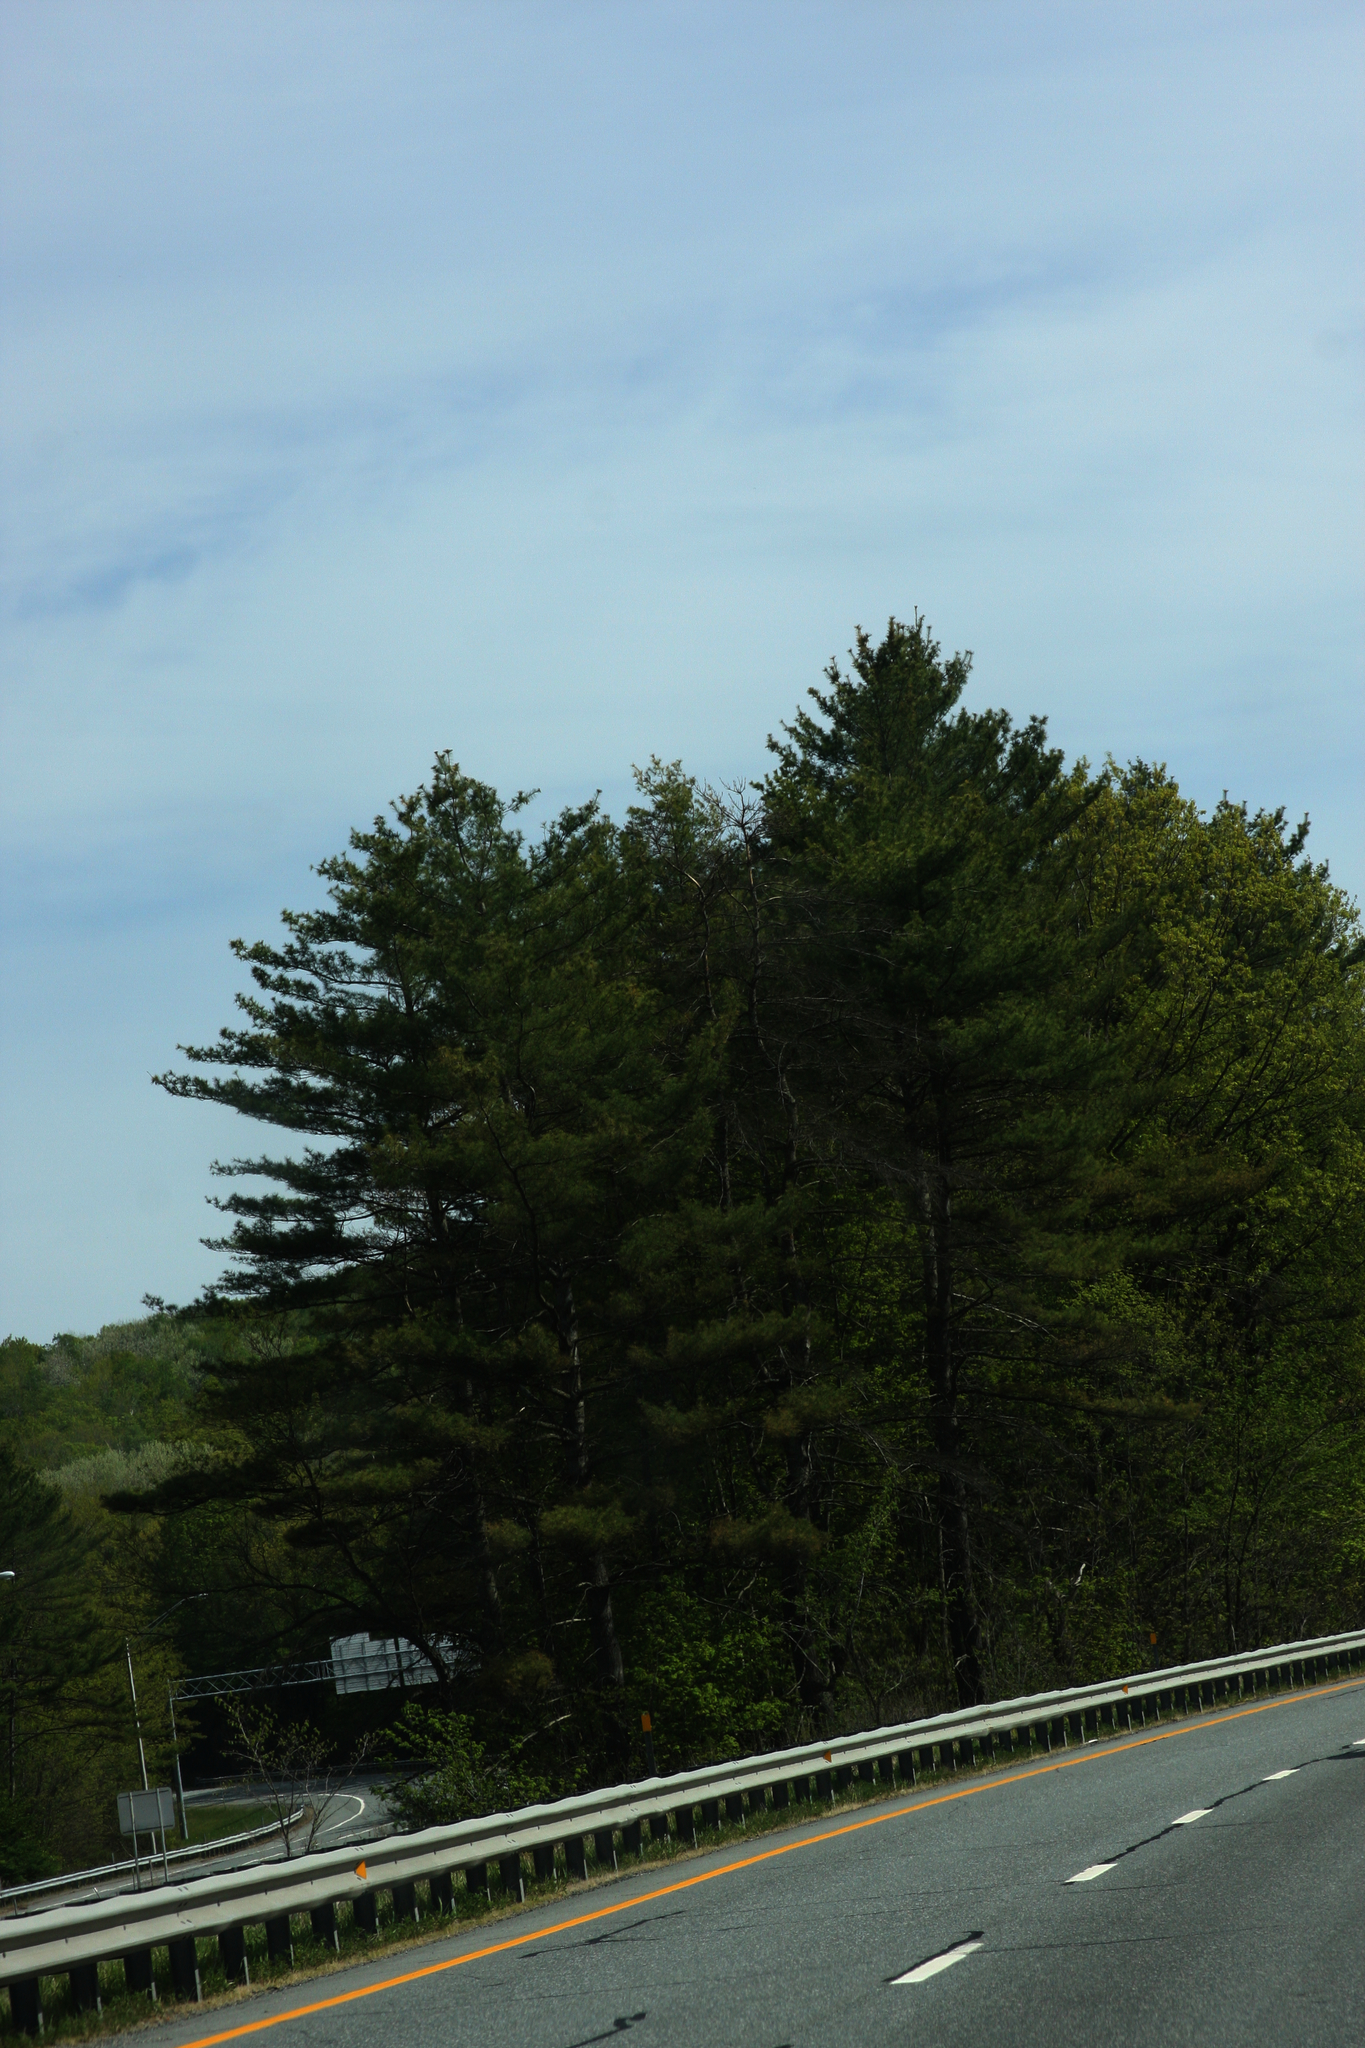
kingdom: Plantae
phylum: Tracheophyta
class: Pinopsida
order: Pinales
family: Pinaceae
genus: Pinus
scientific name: Pinus strobus
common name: Weymouth pine
